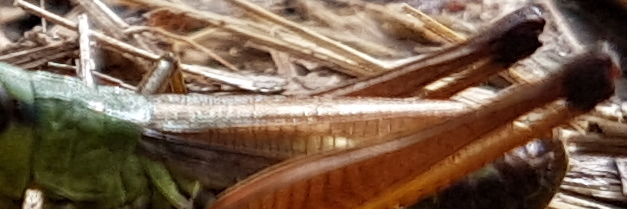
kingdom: Animalia
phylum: Arthropoda
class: Insecta
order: Orthoptera
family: Acrididae
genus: Pseudochorthippus
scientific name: Pseudochorthippus parallelus
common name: Meadow grasshopper
